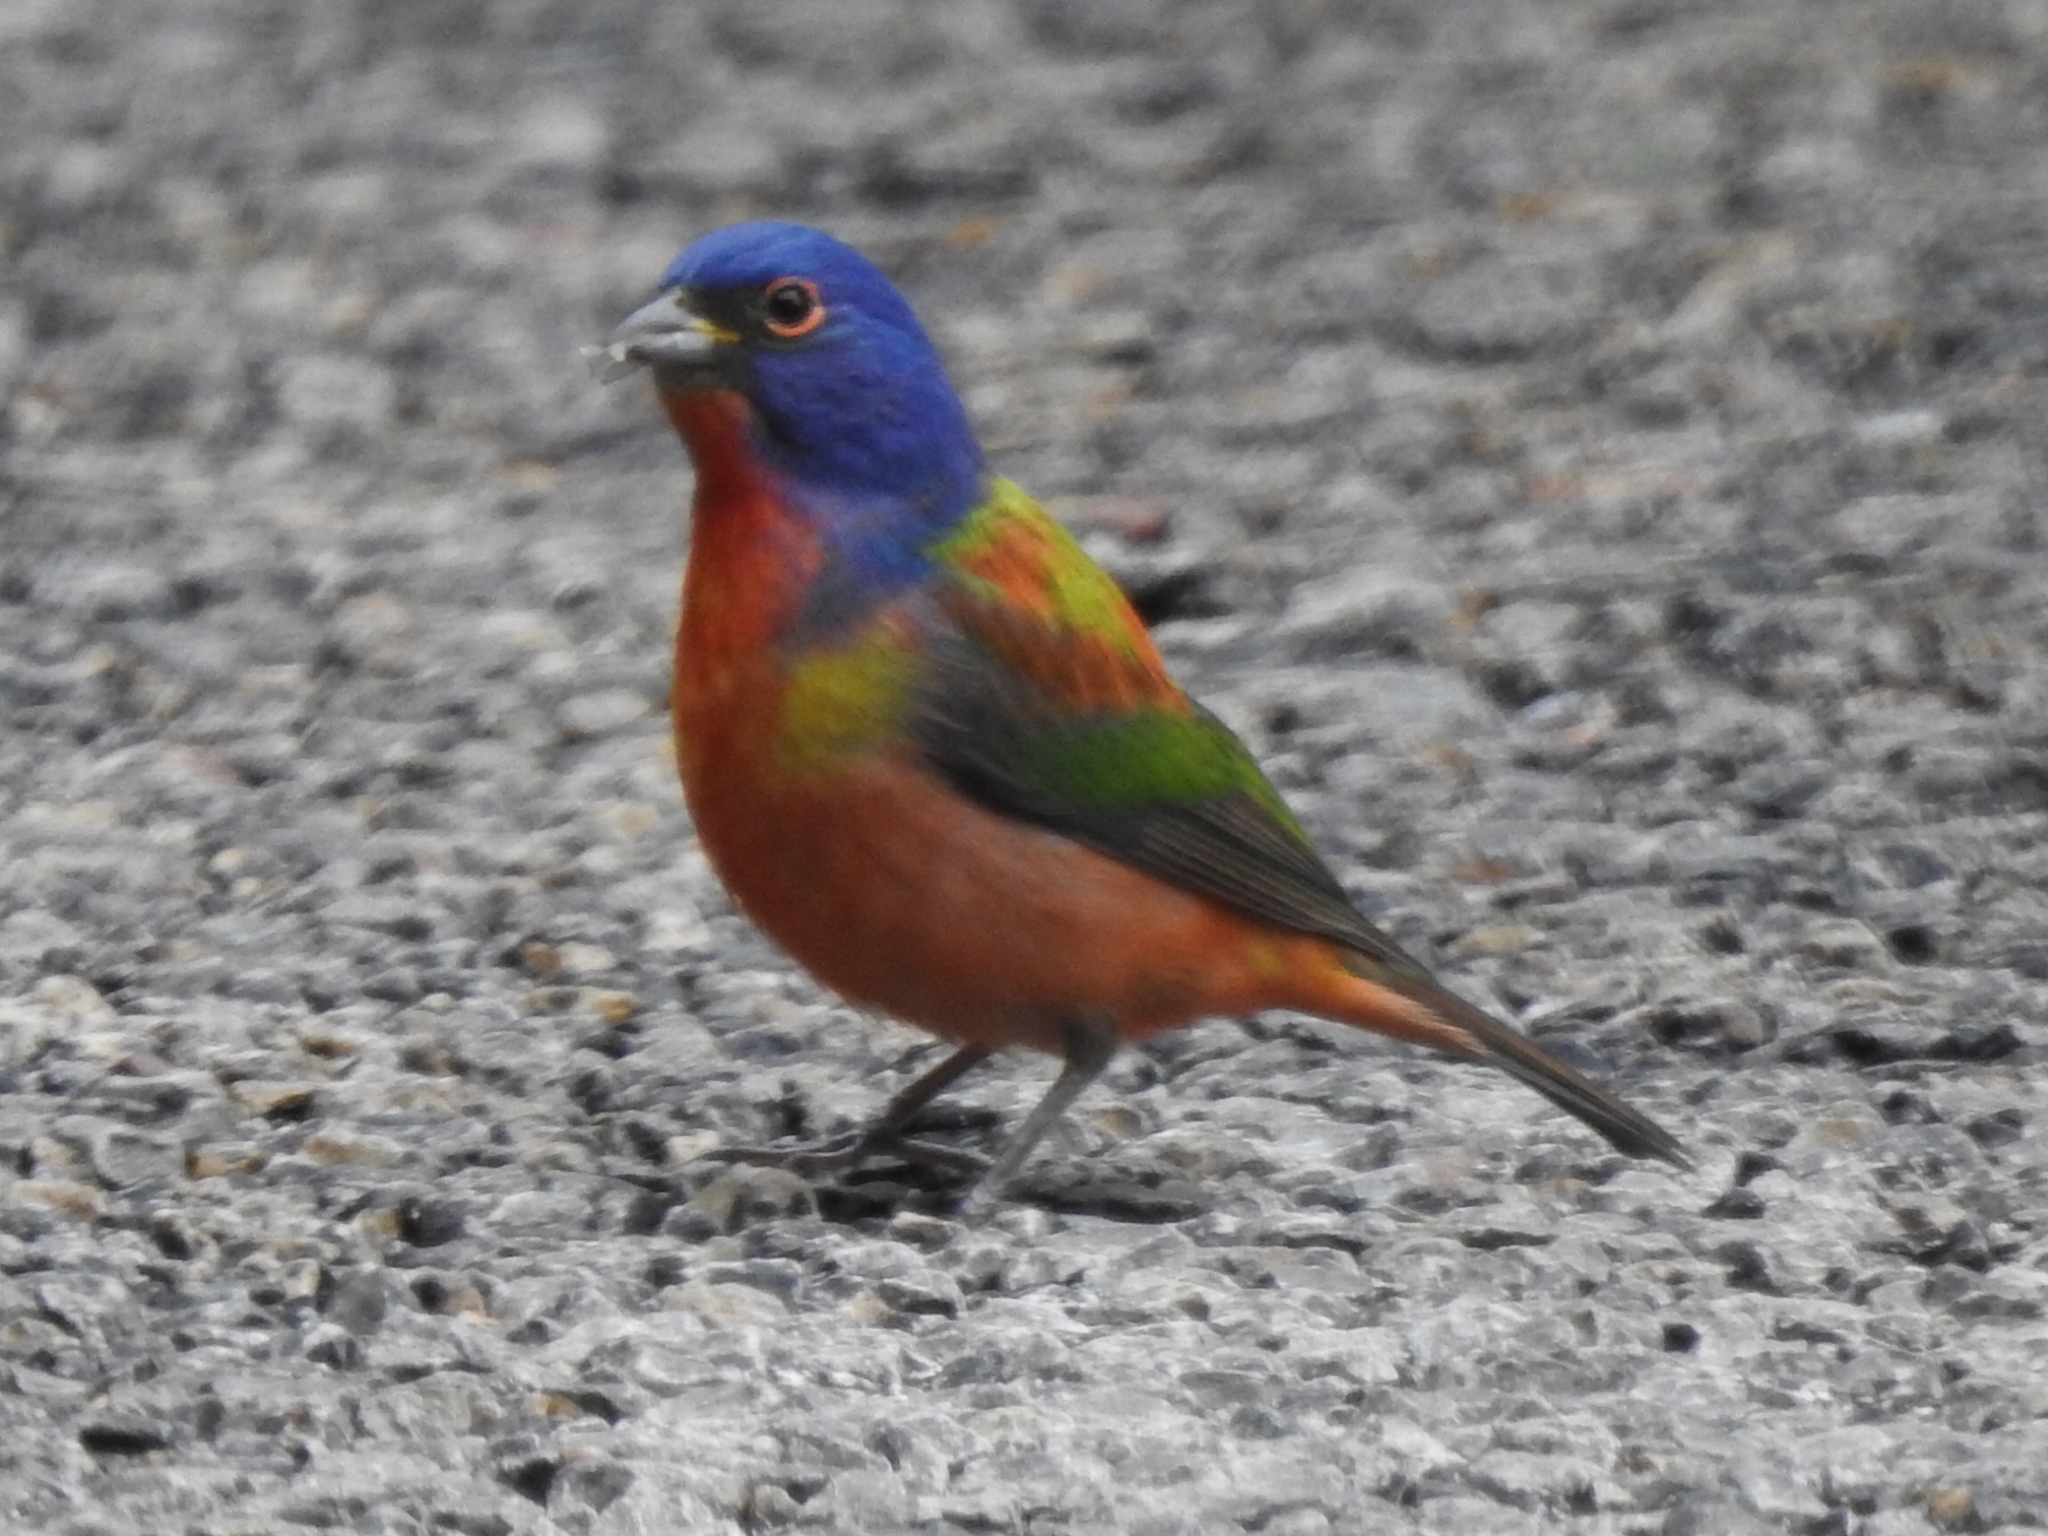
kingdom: Animalia
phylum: Chordata
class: Aves
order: Passeriformes
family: Cardinalidae
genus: Passerina
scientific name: Passerina ciris
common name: Painted bunting
